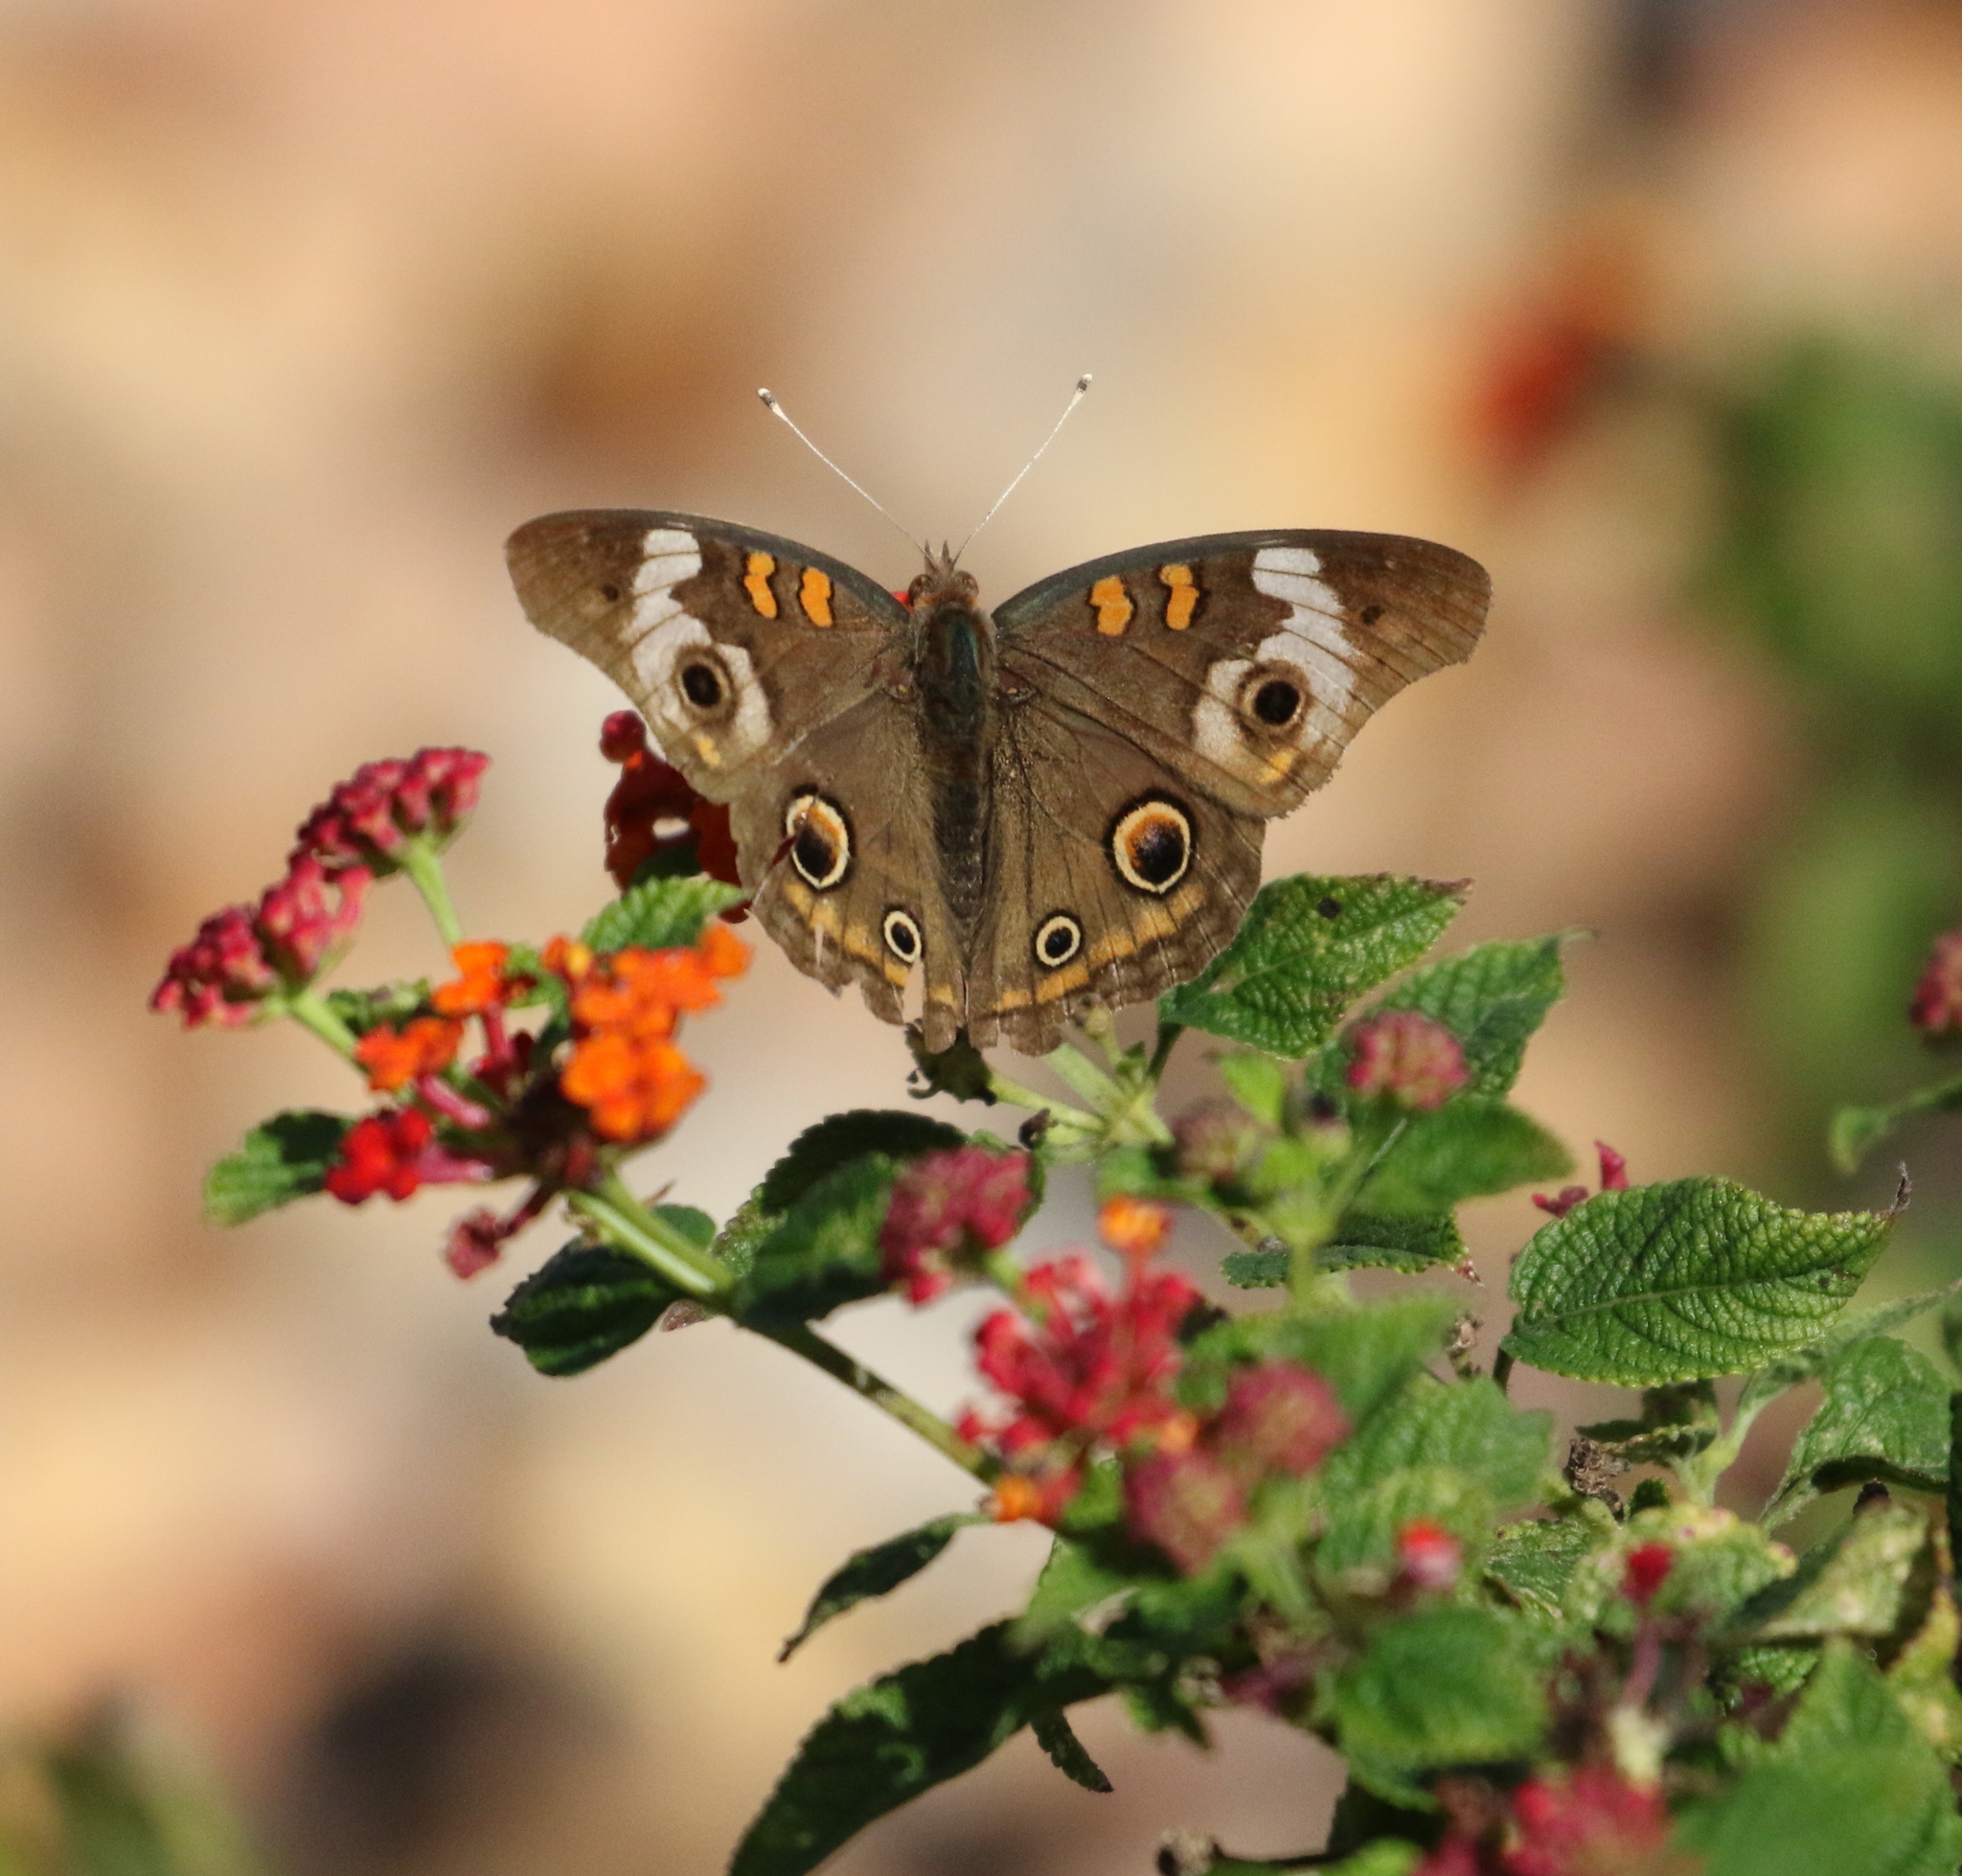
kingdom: Animalia
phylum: Arthropoda
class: Insecta
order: Lepidoptera
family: Nymphalidae
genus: Junonia
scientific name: Junonia coenia
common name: Common buckeye
